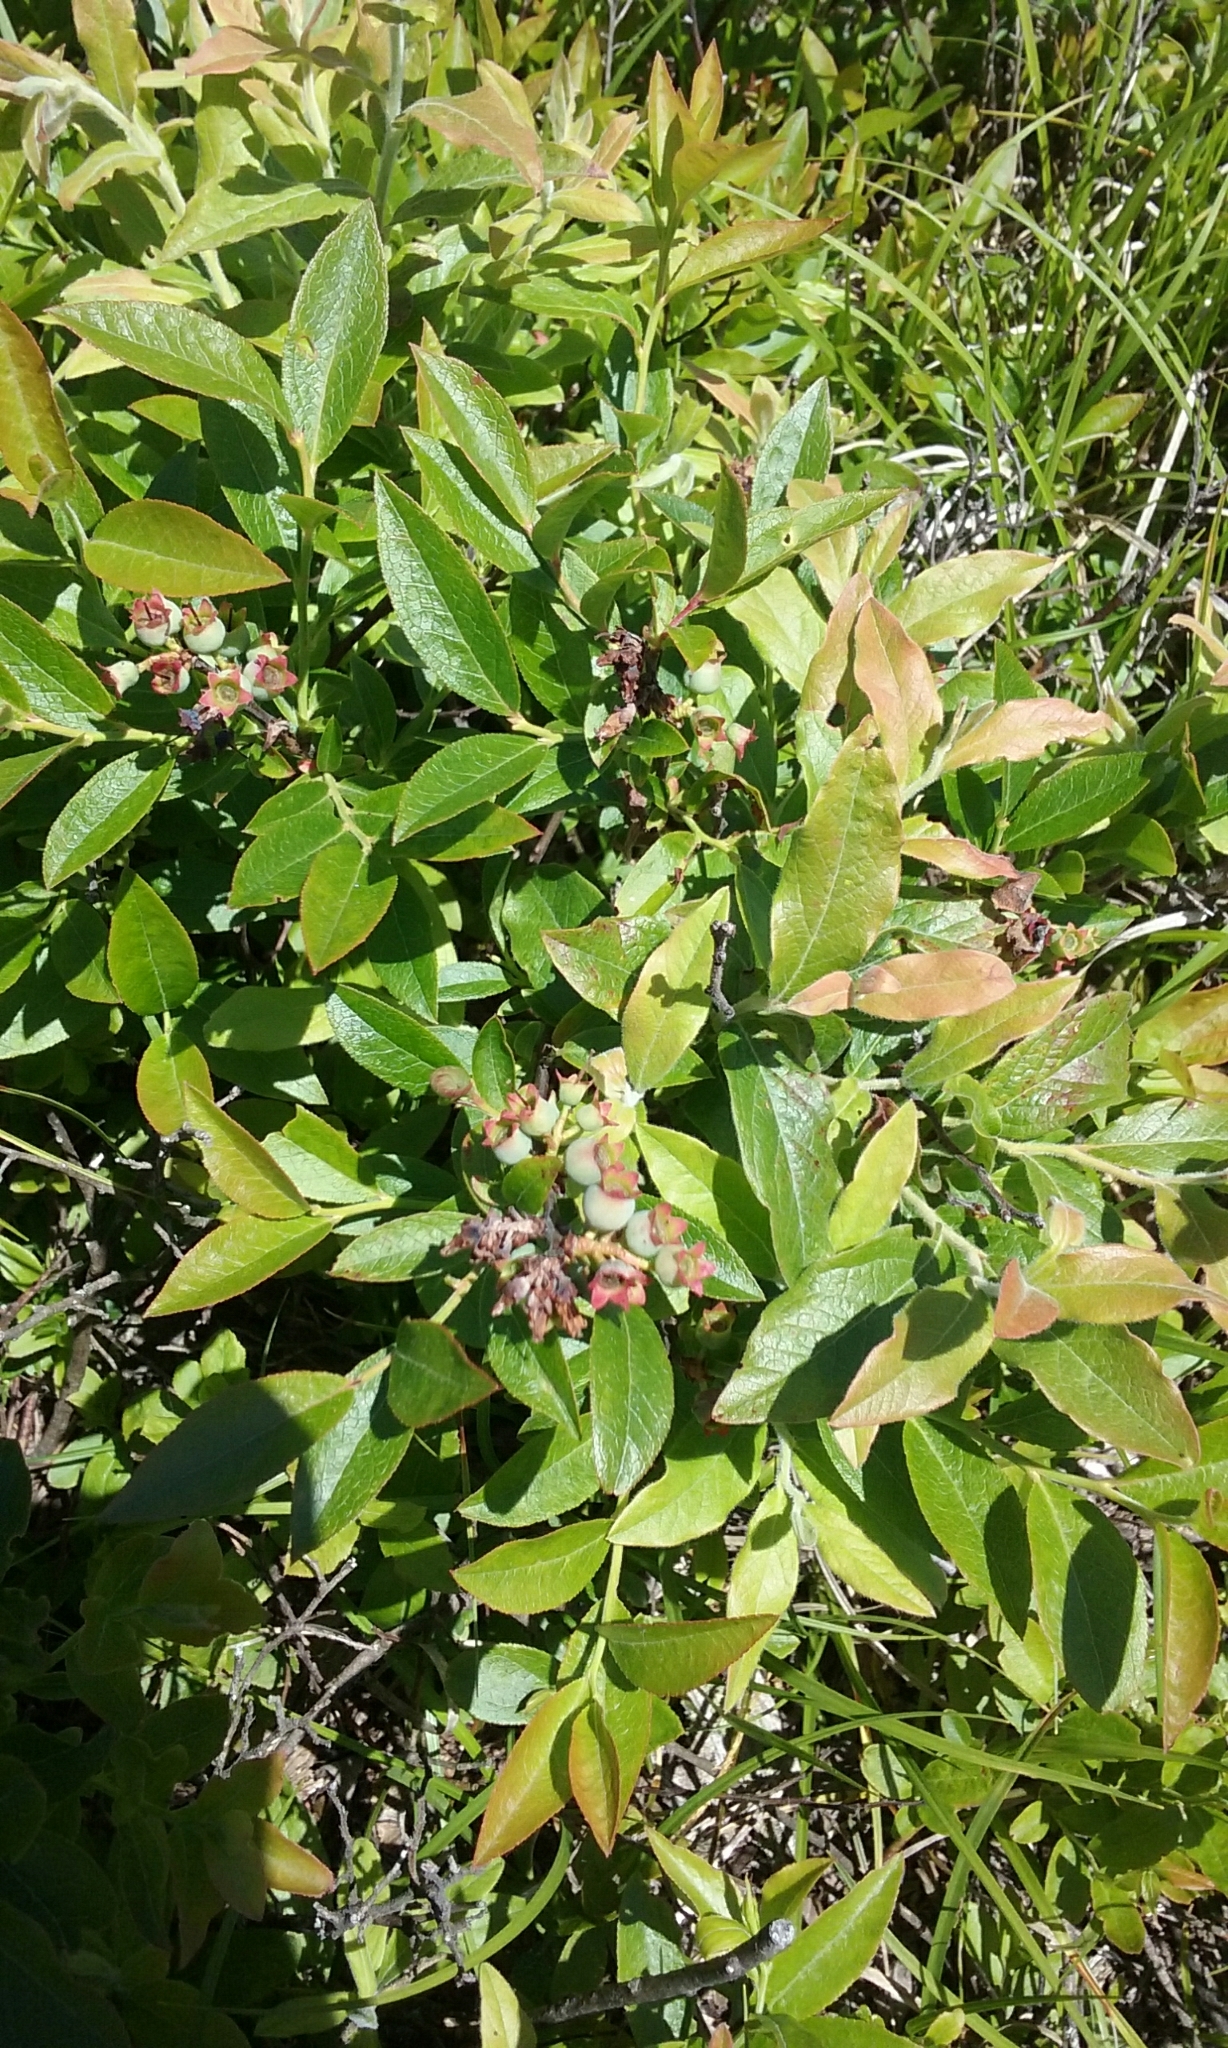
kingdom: Plantae
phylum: Tracheophyta
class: Magnoliopsida
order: Ericales
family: Ericaceae
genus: Vaccinium
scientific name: Vaccinium angustifolium
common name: Early lowbush blueberry
